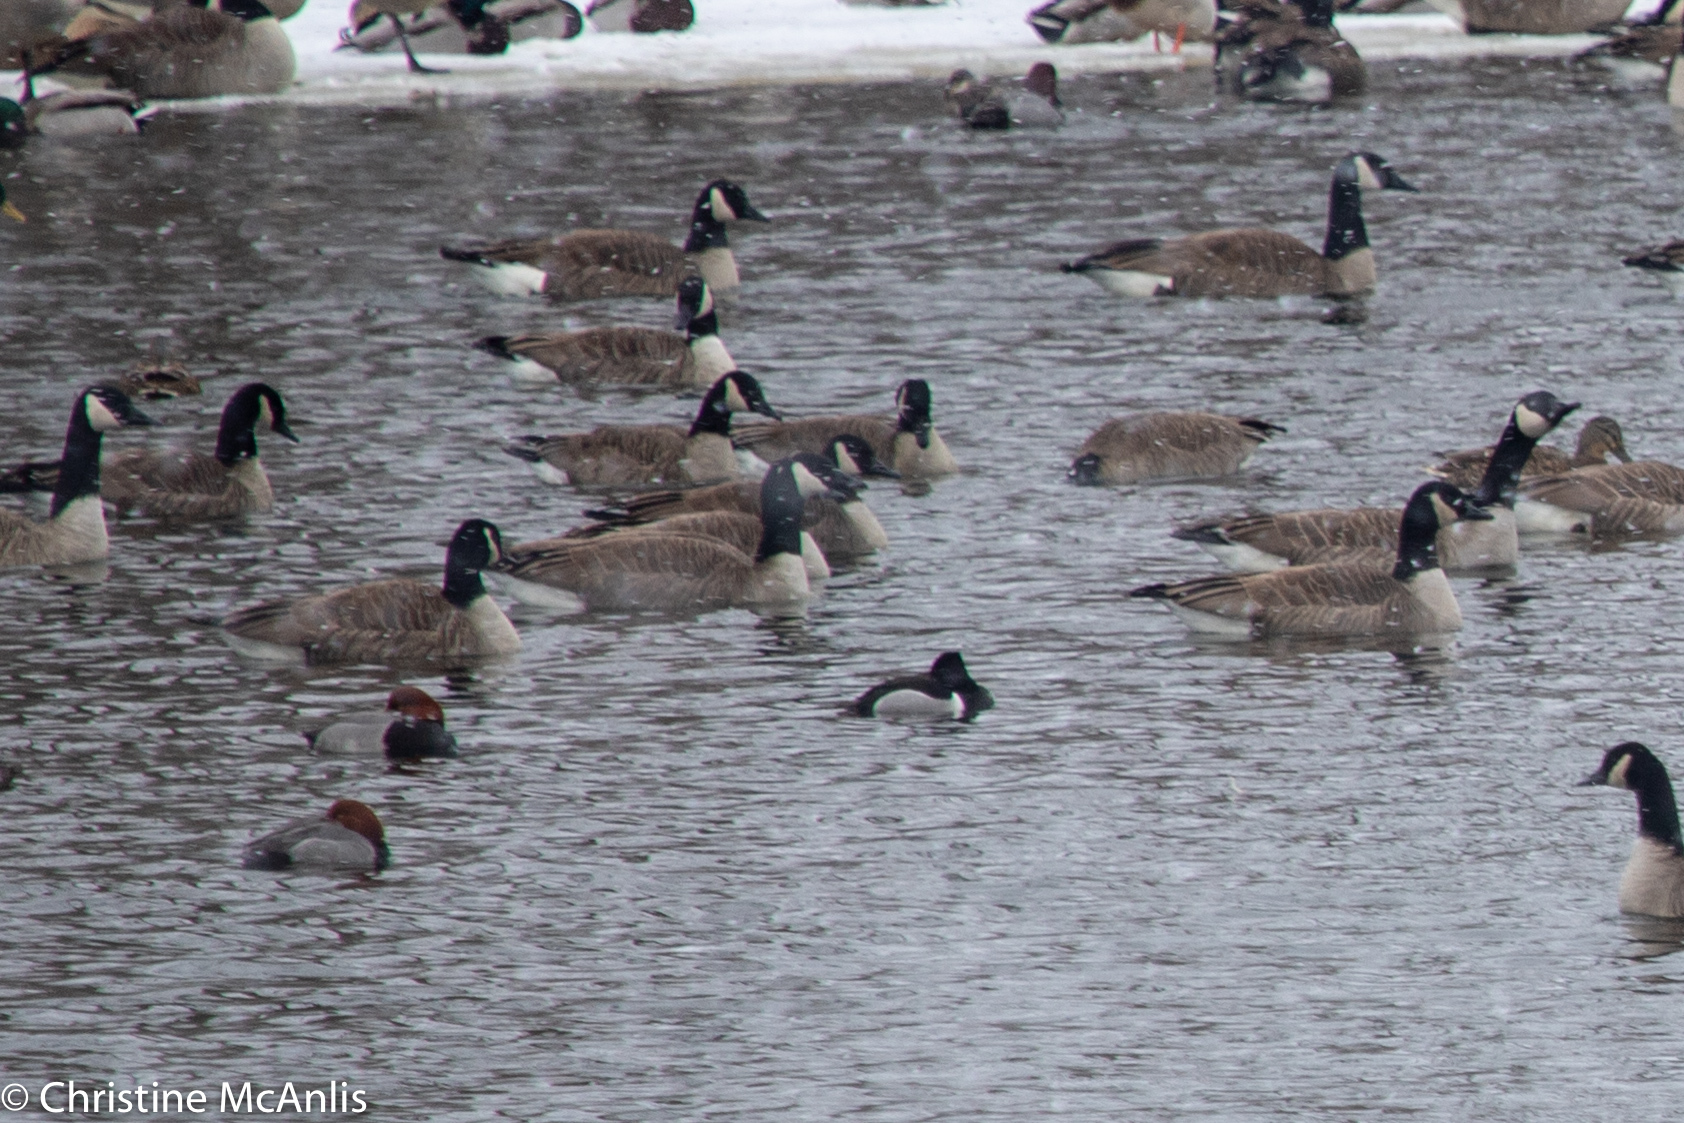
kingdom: Animalia
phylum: Chordata
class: Aves
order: Anseriformes
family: Anatidae
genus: Aythya
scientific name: Aythya collaris
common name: Ring-necked duck
